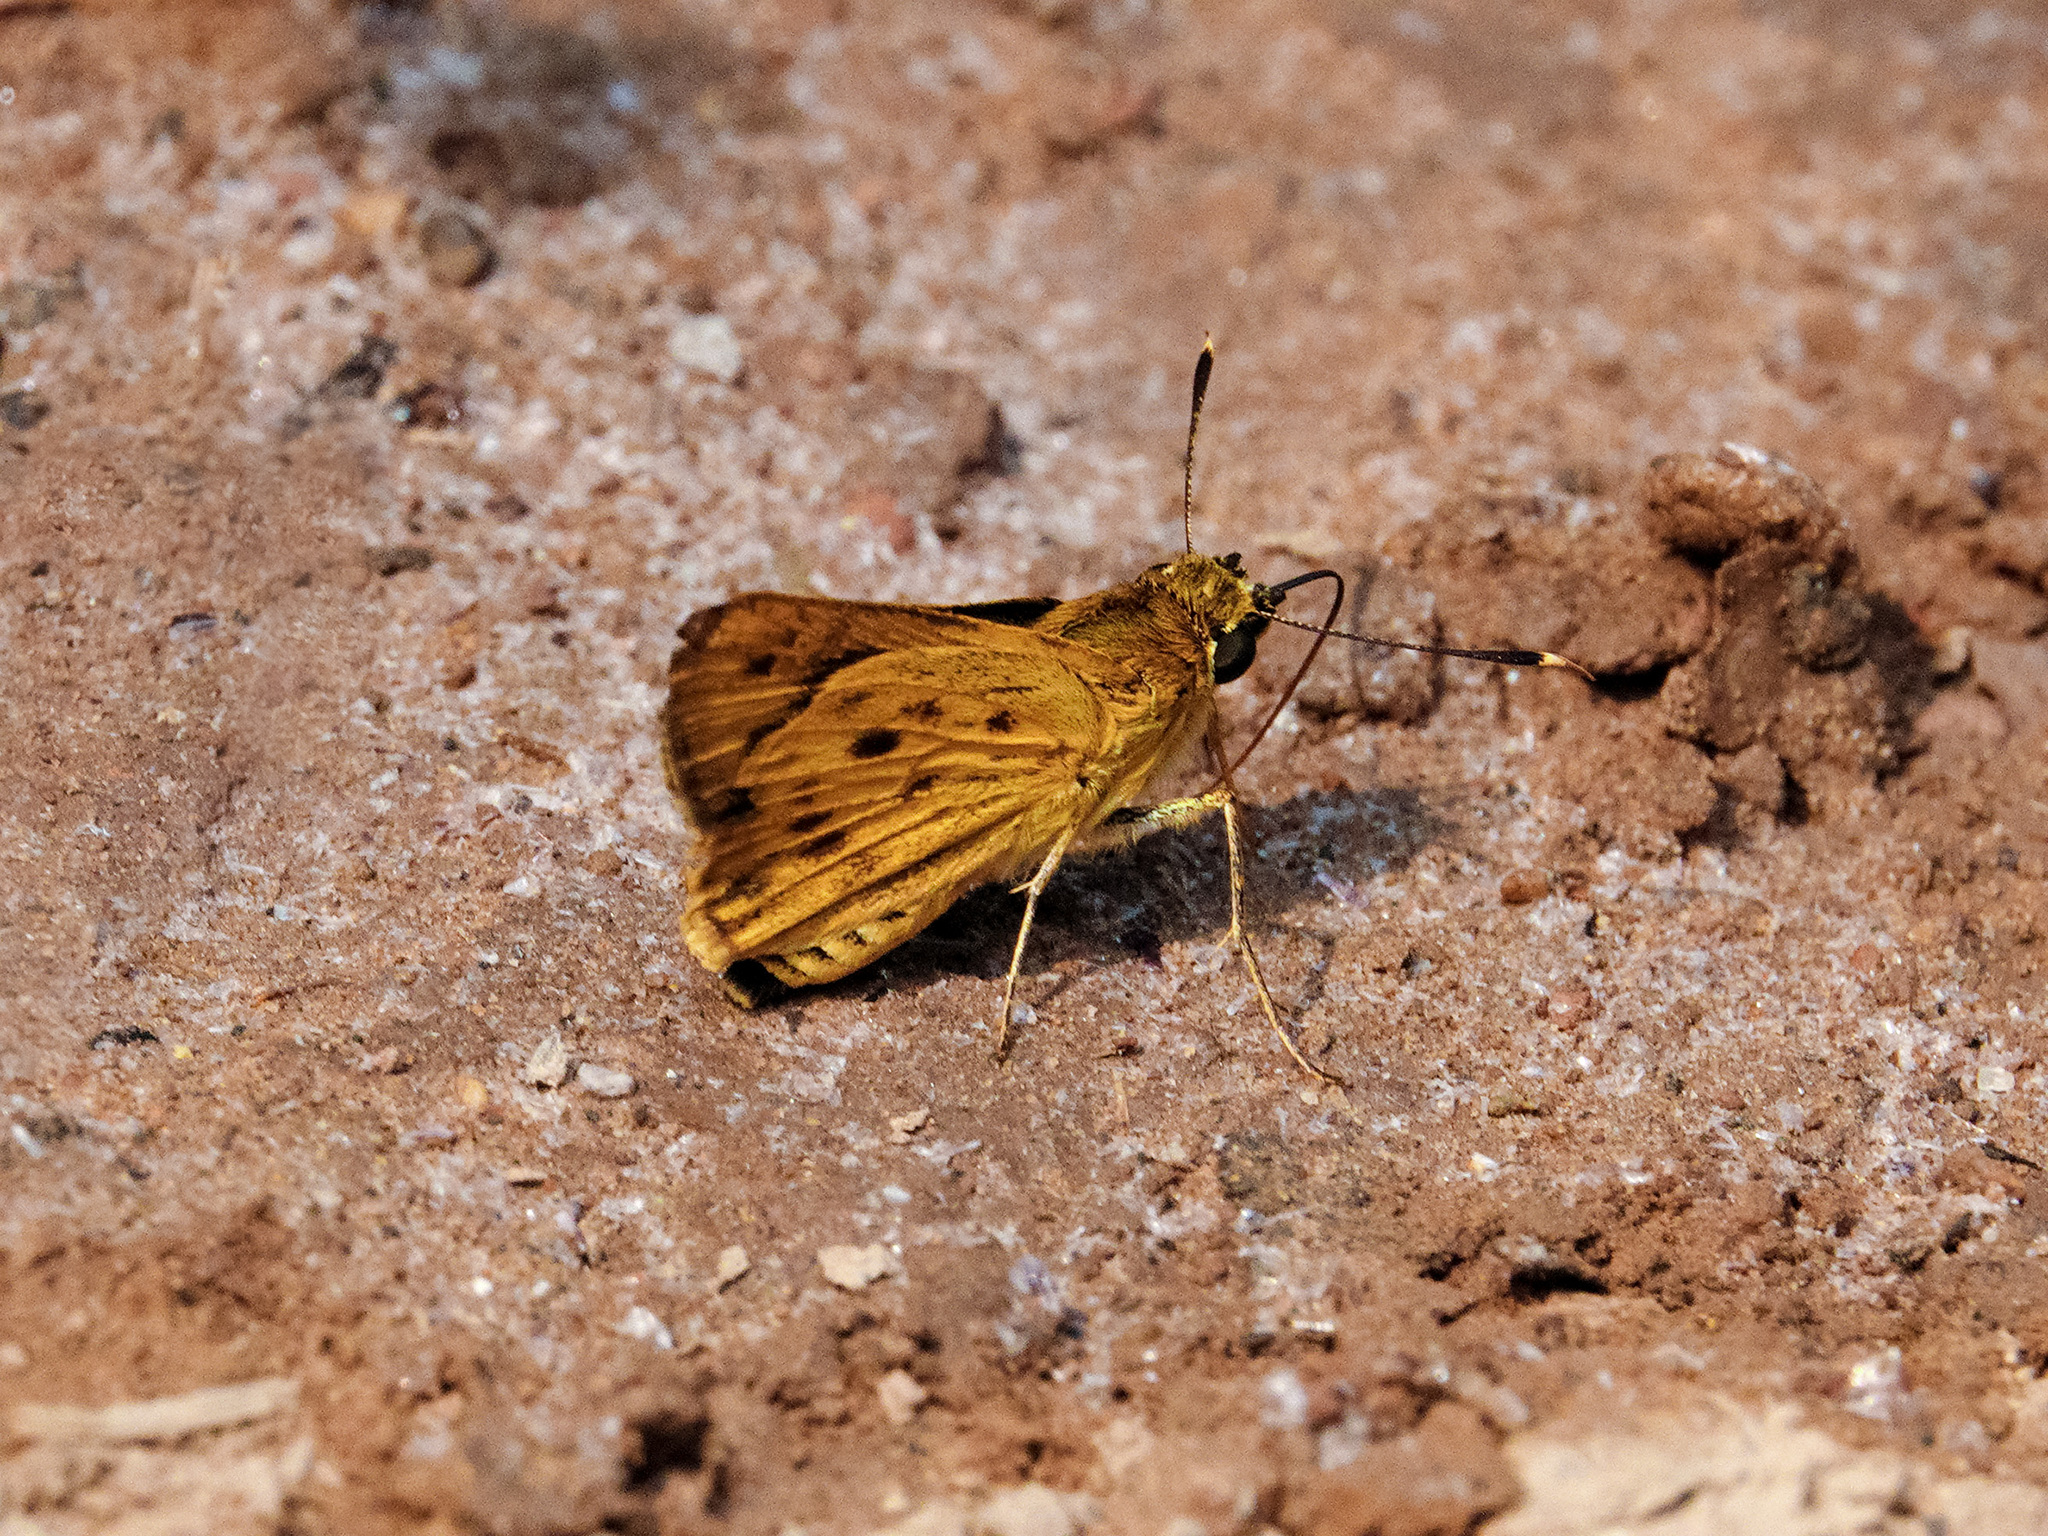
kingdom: Animalia
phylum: Arthropoda
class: Insecta
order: Lepidoptera
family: Hesperiidae
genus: Thoressa
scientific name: Thoressa masoni
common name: Golden ace
